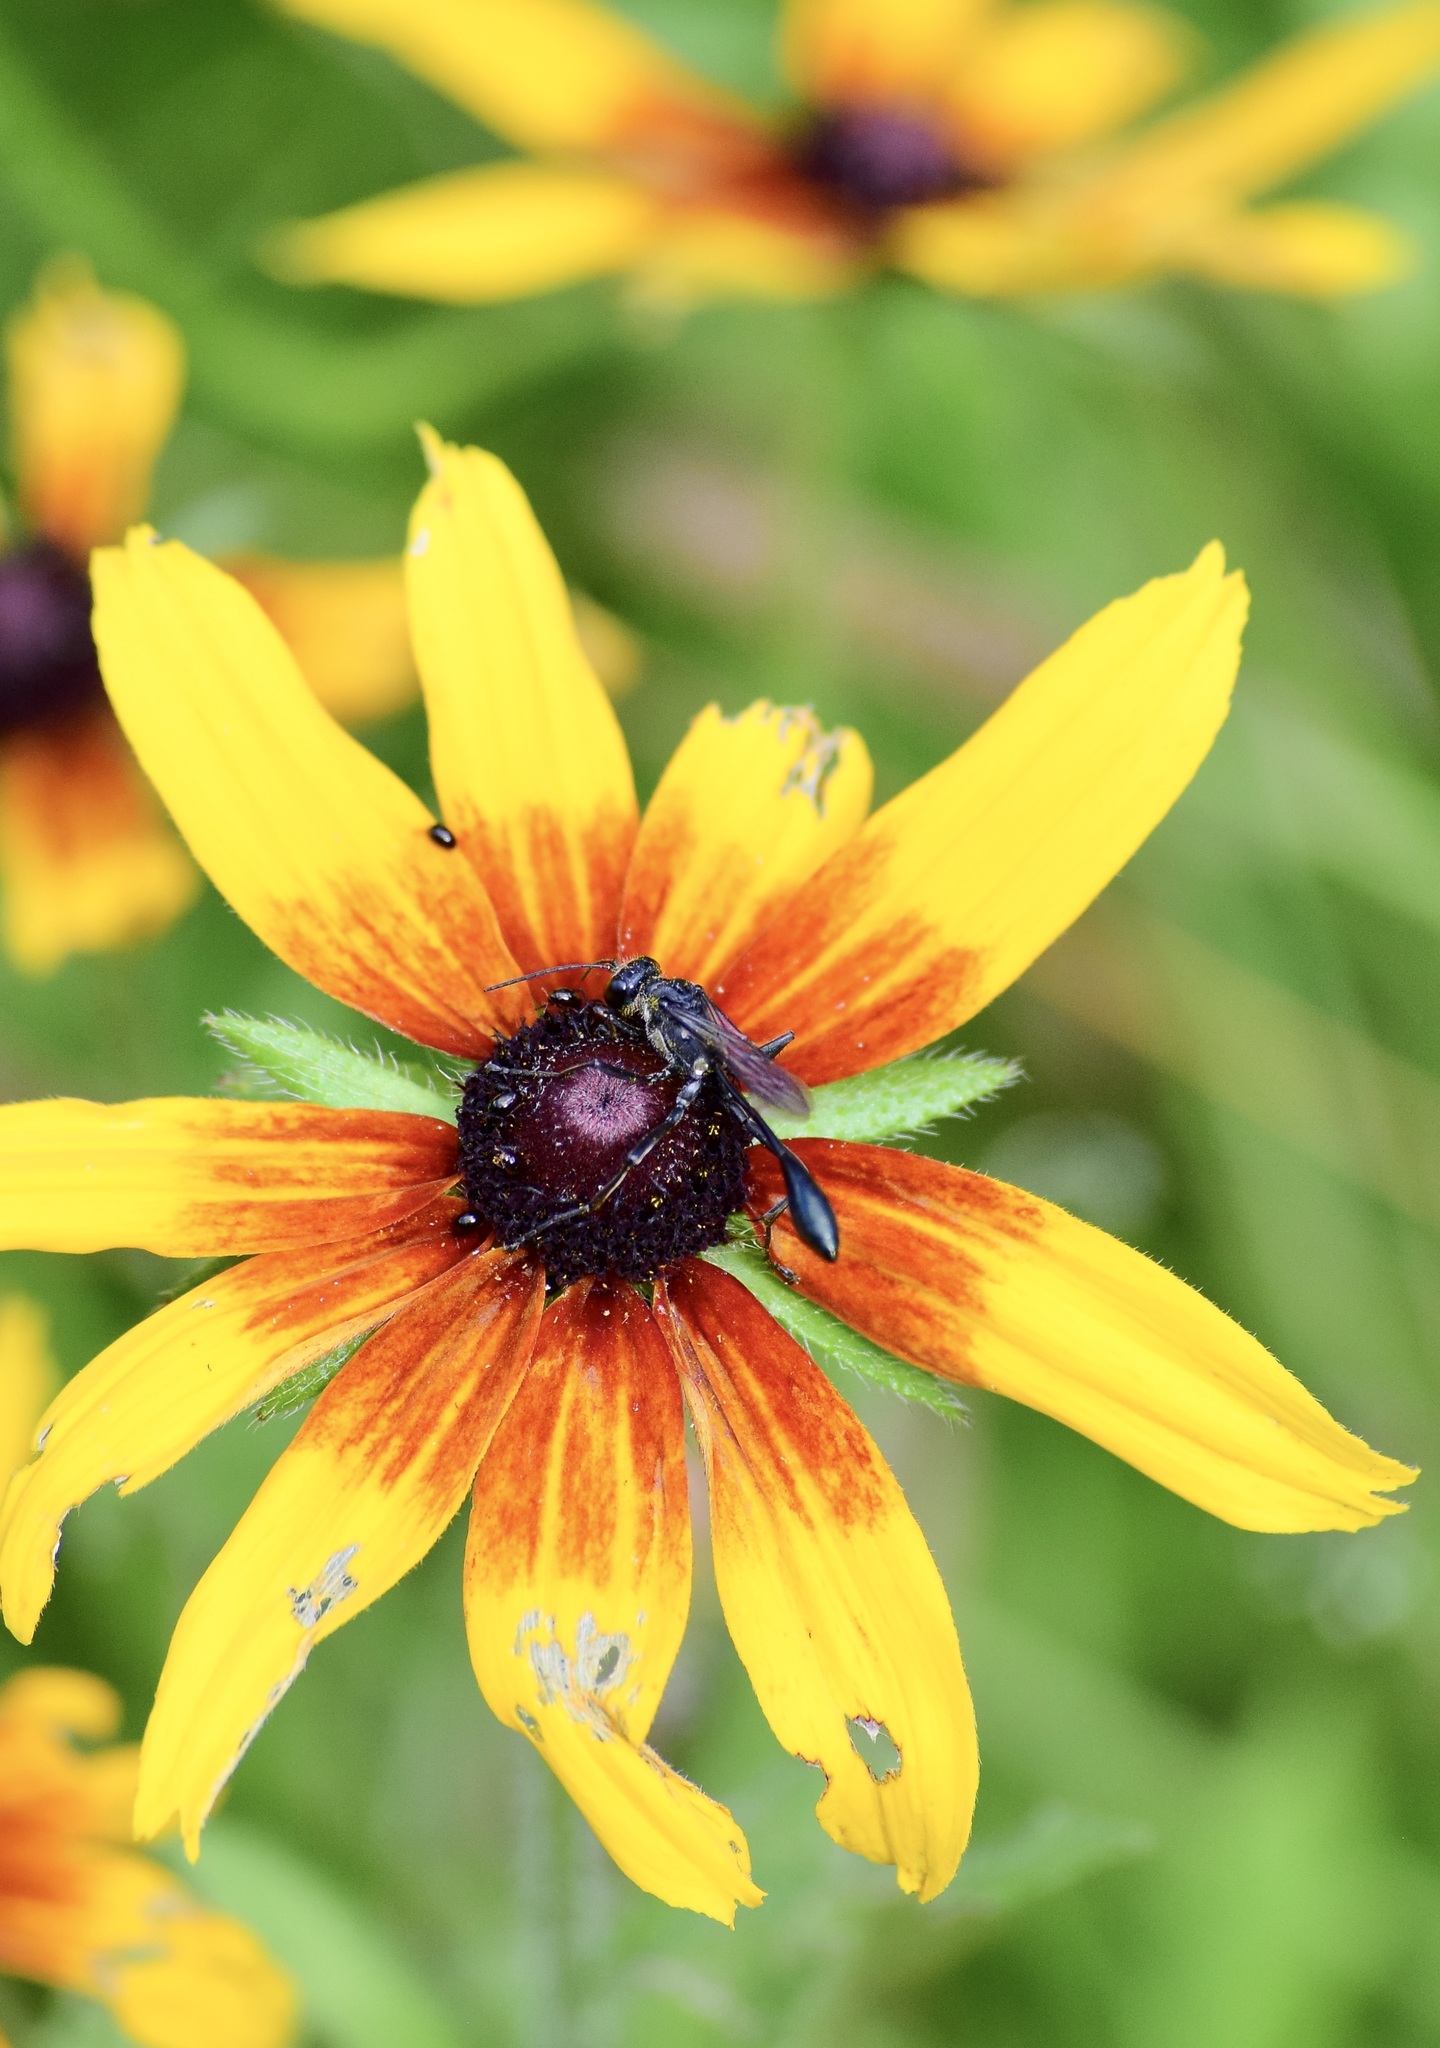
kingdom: Animalia
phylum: Arthropoda
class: Insecta
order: Hymenoptera
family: Sphecidae
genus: Eremnophila
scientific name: Eremnophila aureonotata
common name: Gold-marked thread-waisted wasp
